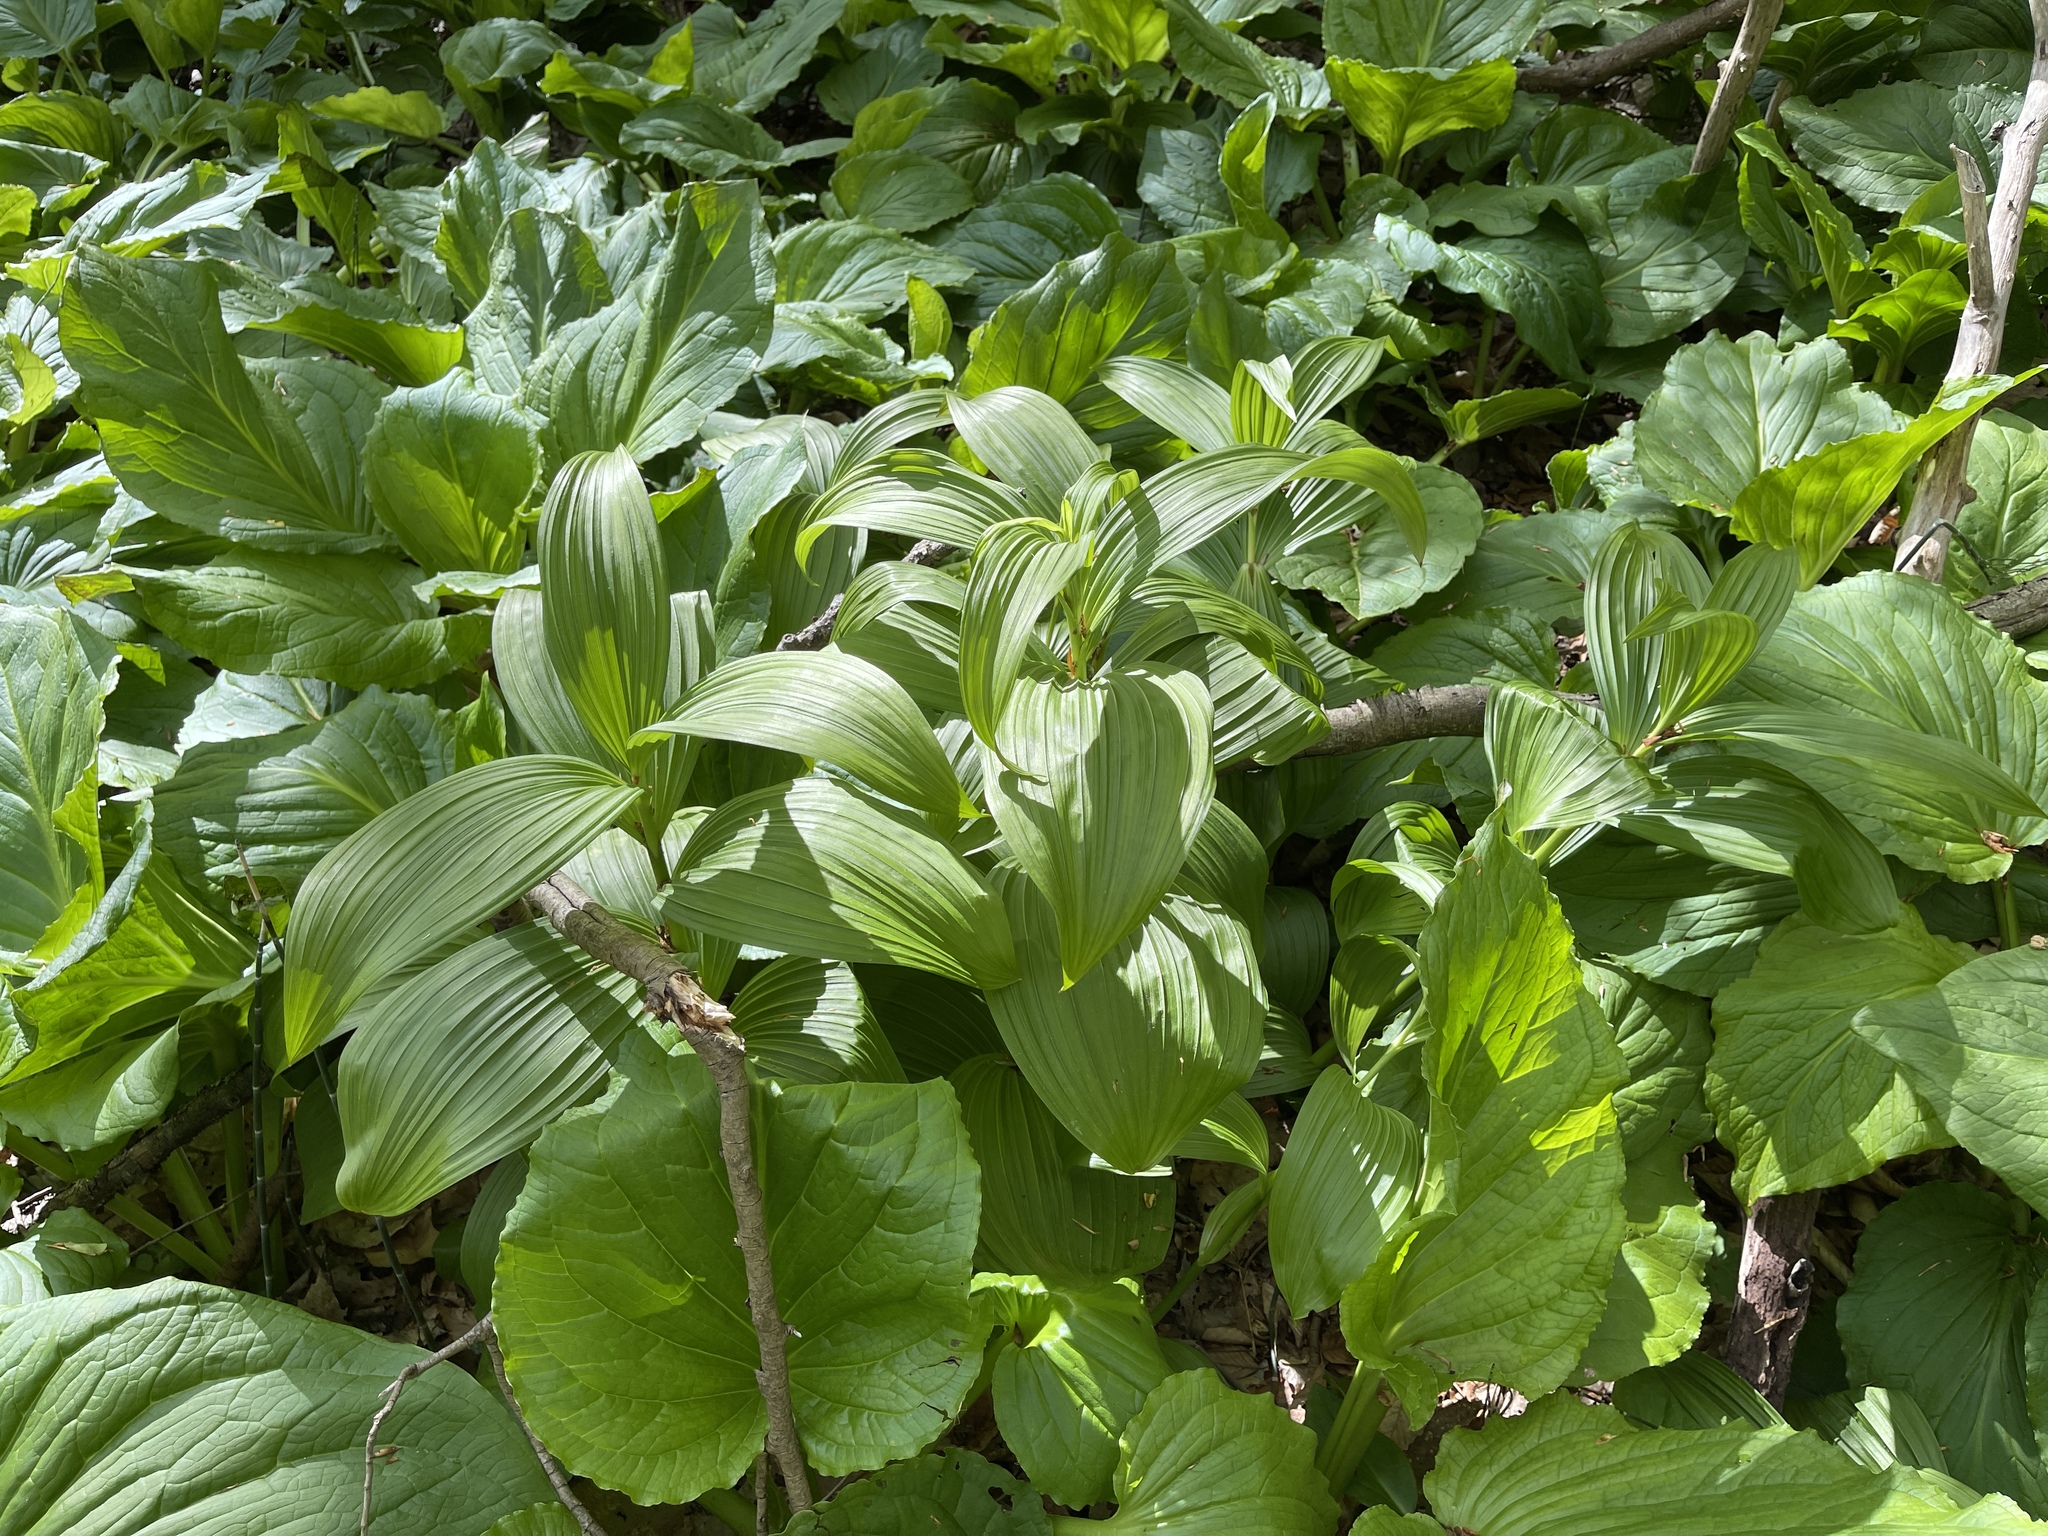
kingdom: Plantae
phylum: Tracheophyta
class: Liliopsida
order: Liliales
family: Melanthiaceae
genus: Veratrum
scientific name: Veratrum viride
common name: American false hellebore
